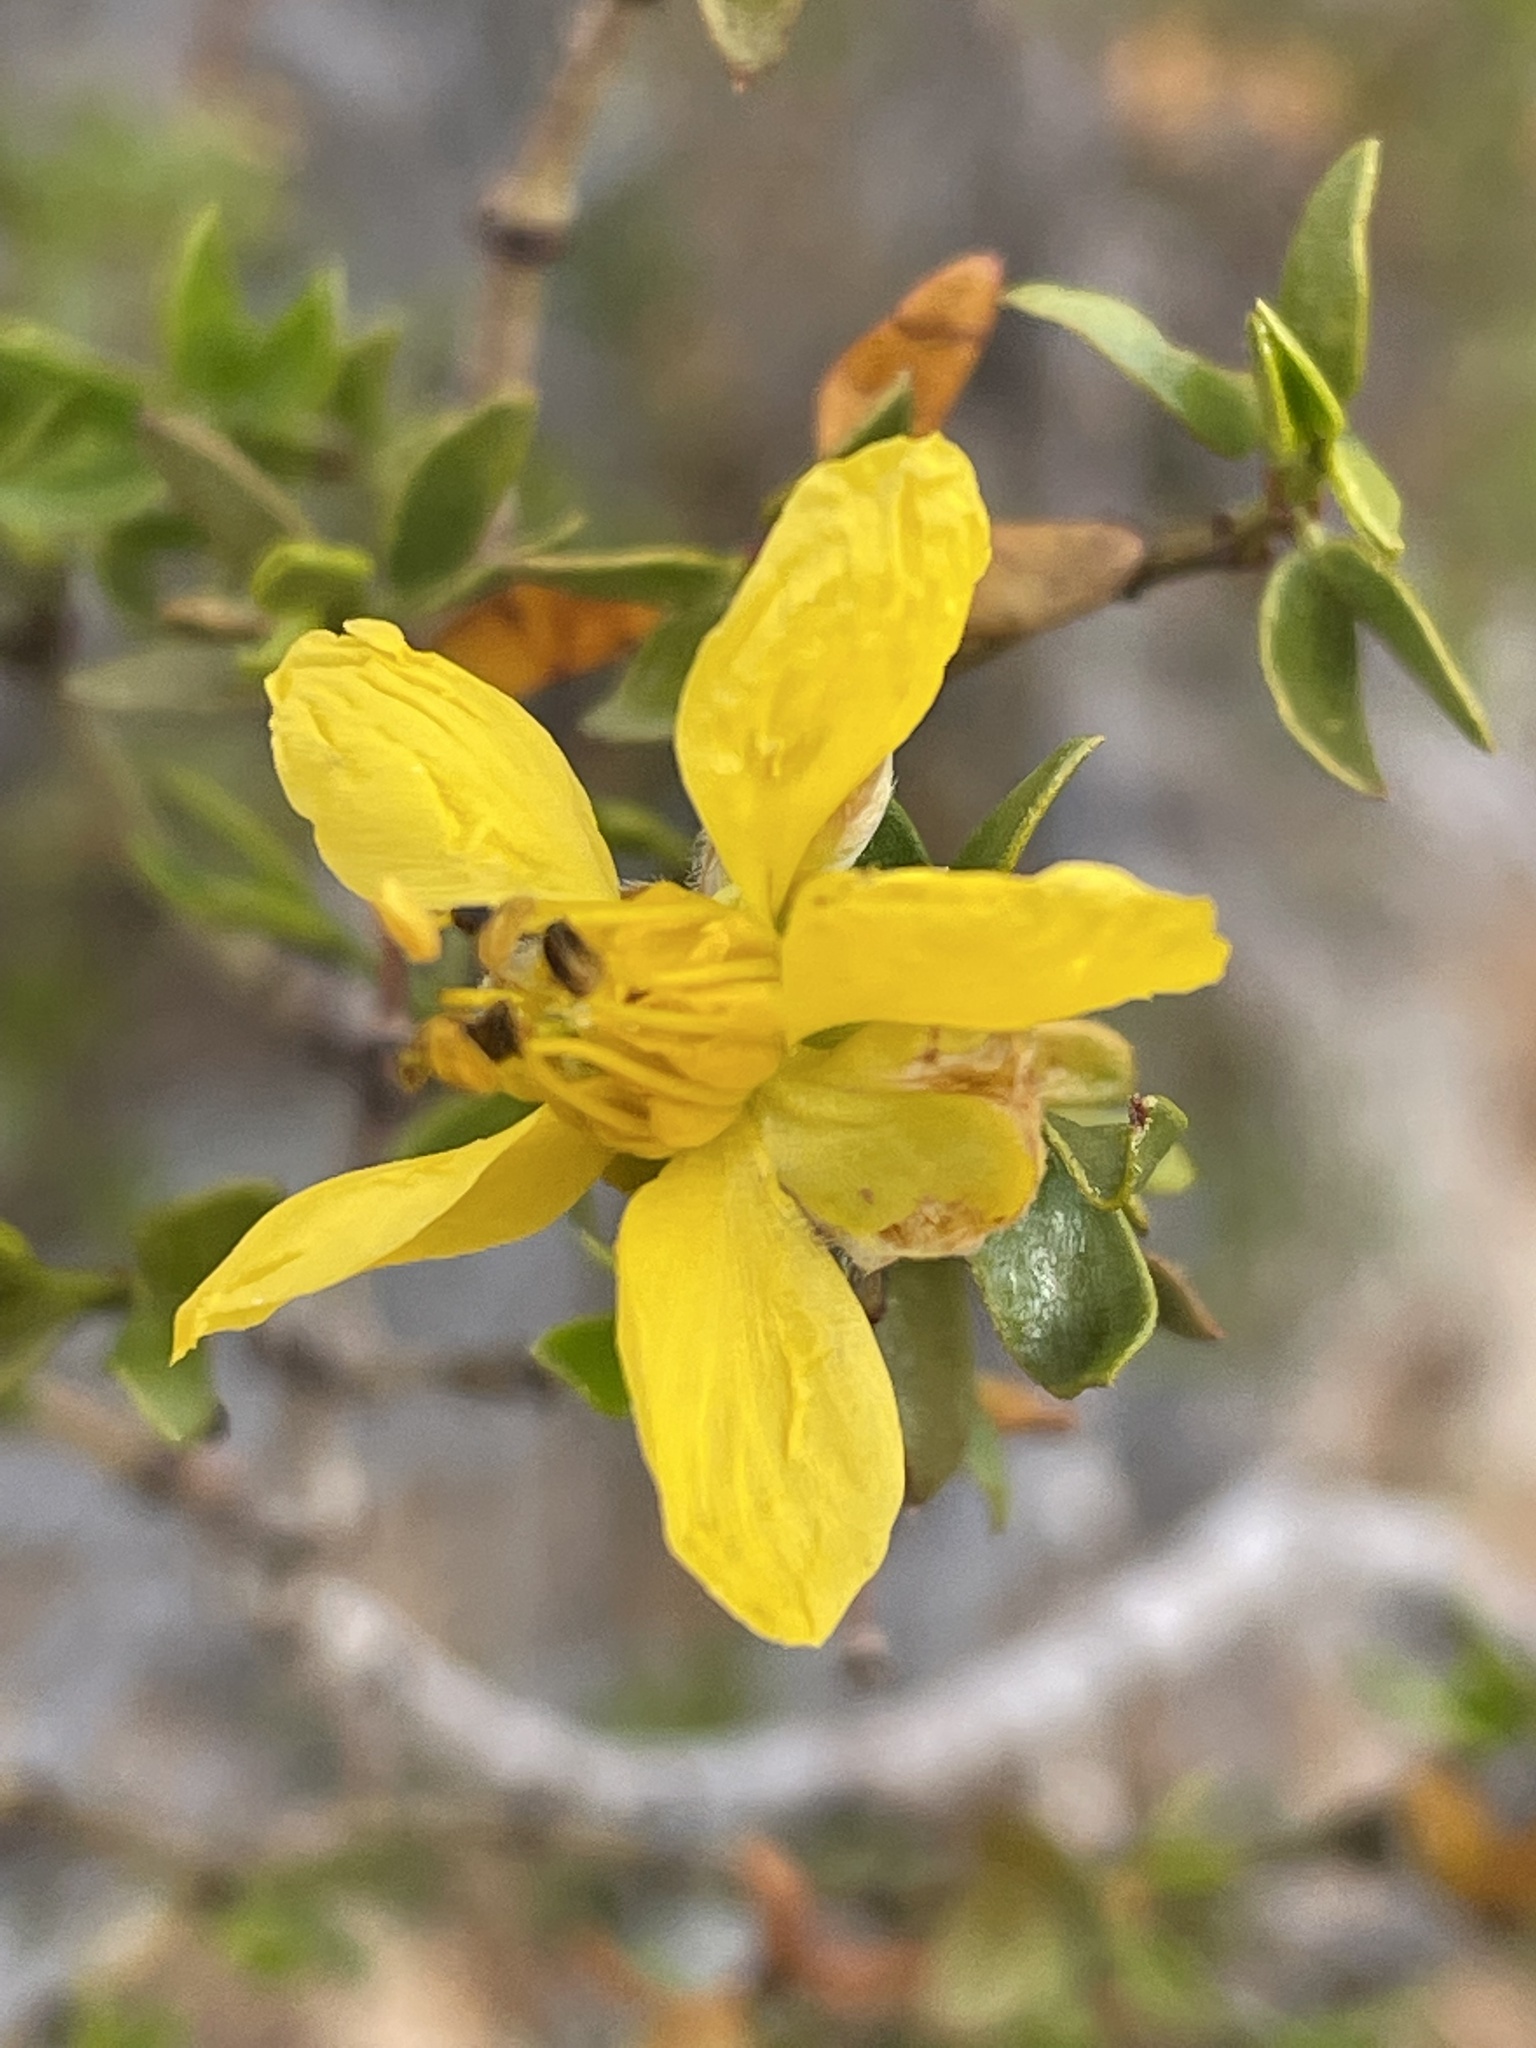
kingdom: Plantae
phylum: Tracheophyta
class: Magnoliopsida
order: Zygophyllales
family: Zygophyllaceae
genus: Larrea
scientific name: Larrea tridentata
